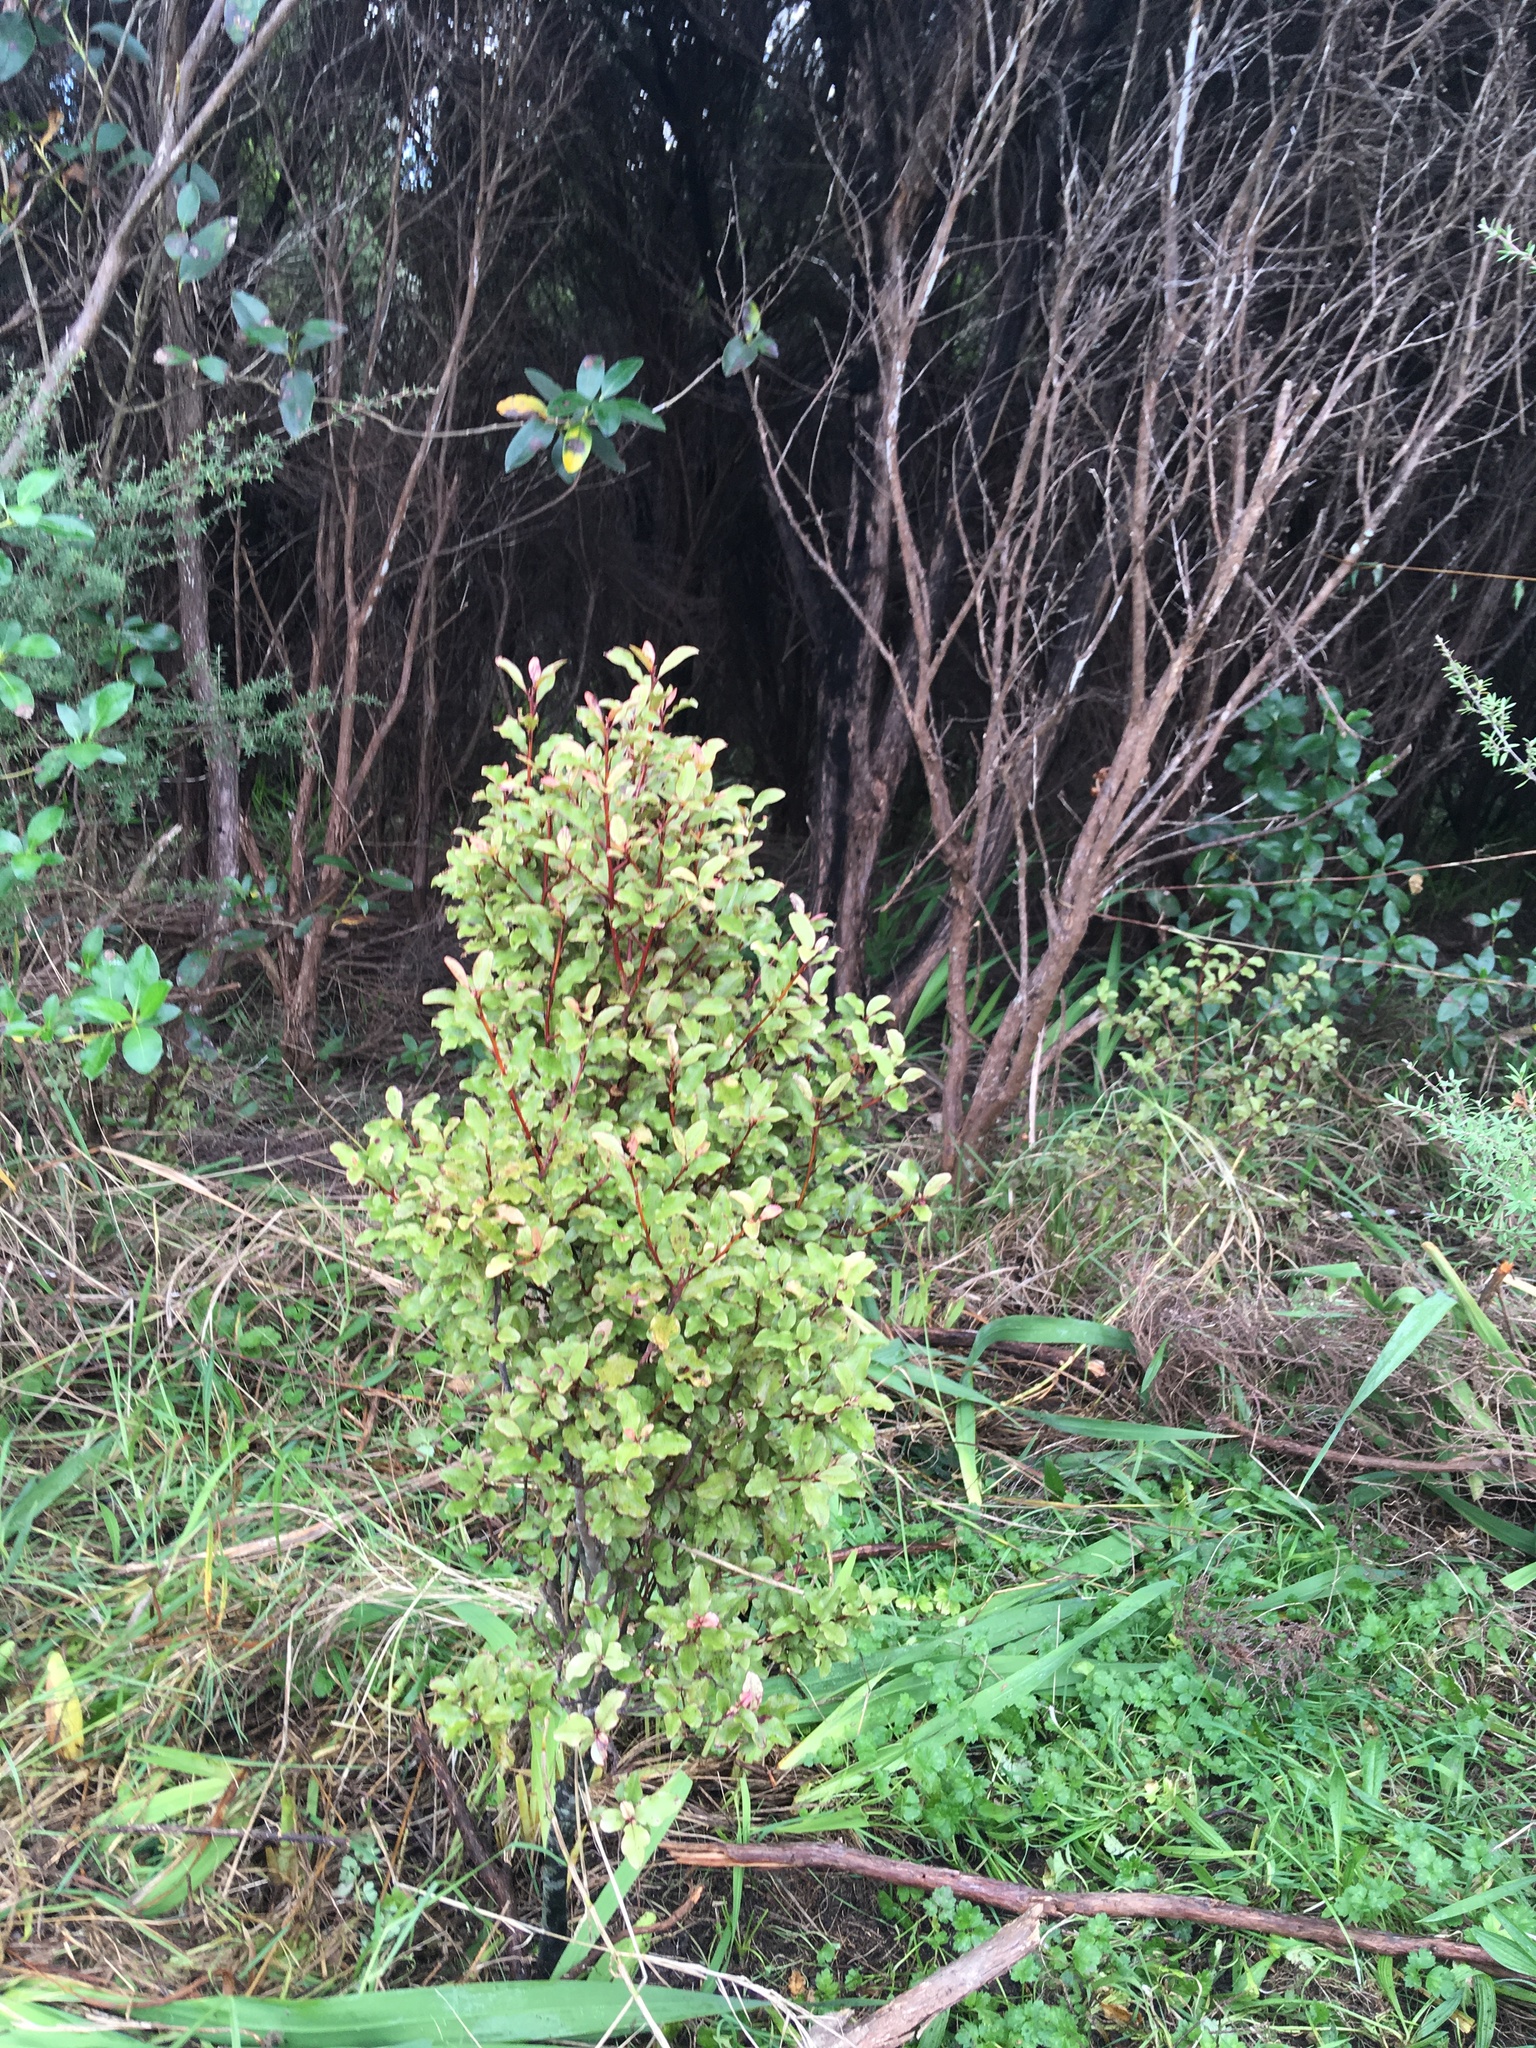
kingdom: Plantae
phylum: Tracheophyta
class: Magnoliopsida
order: Ericales
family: Primulaceae
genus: Myrsine
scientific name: Myrsine australis
